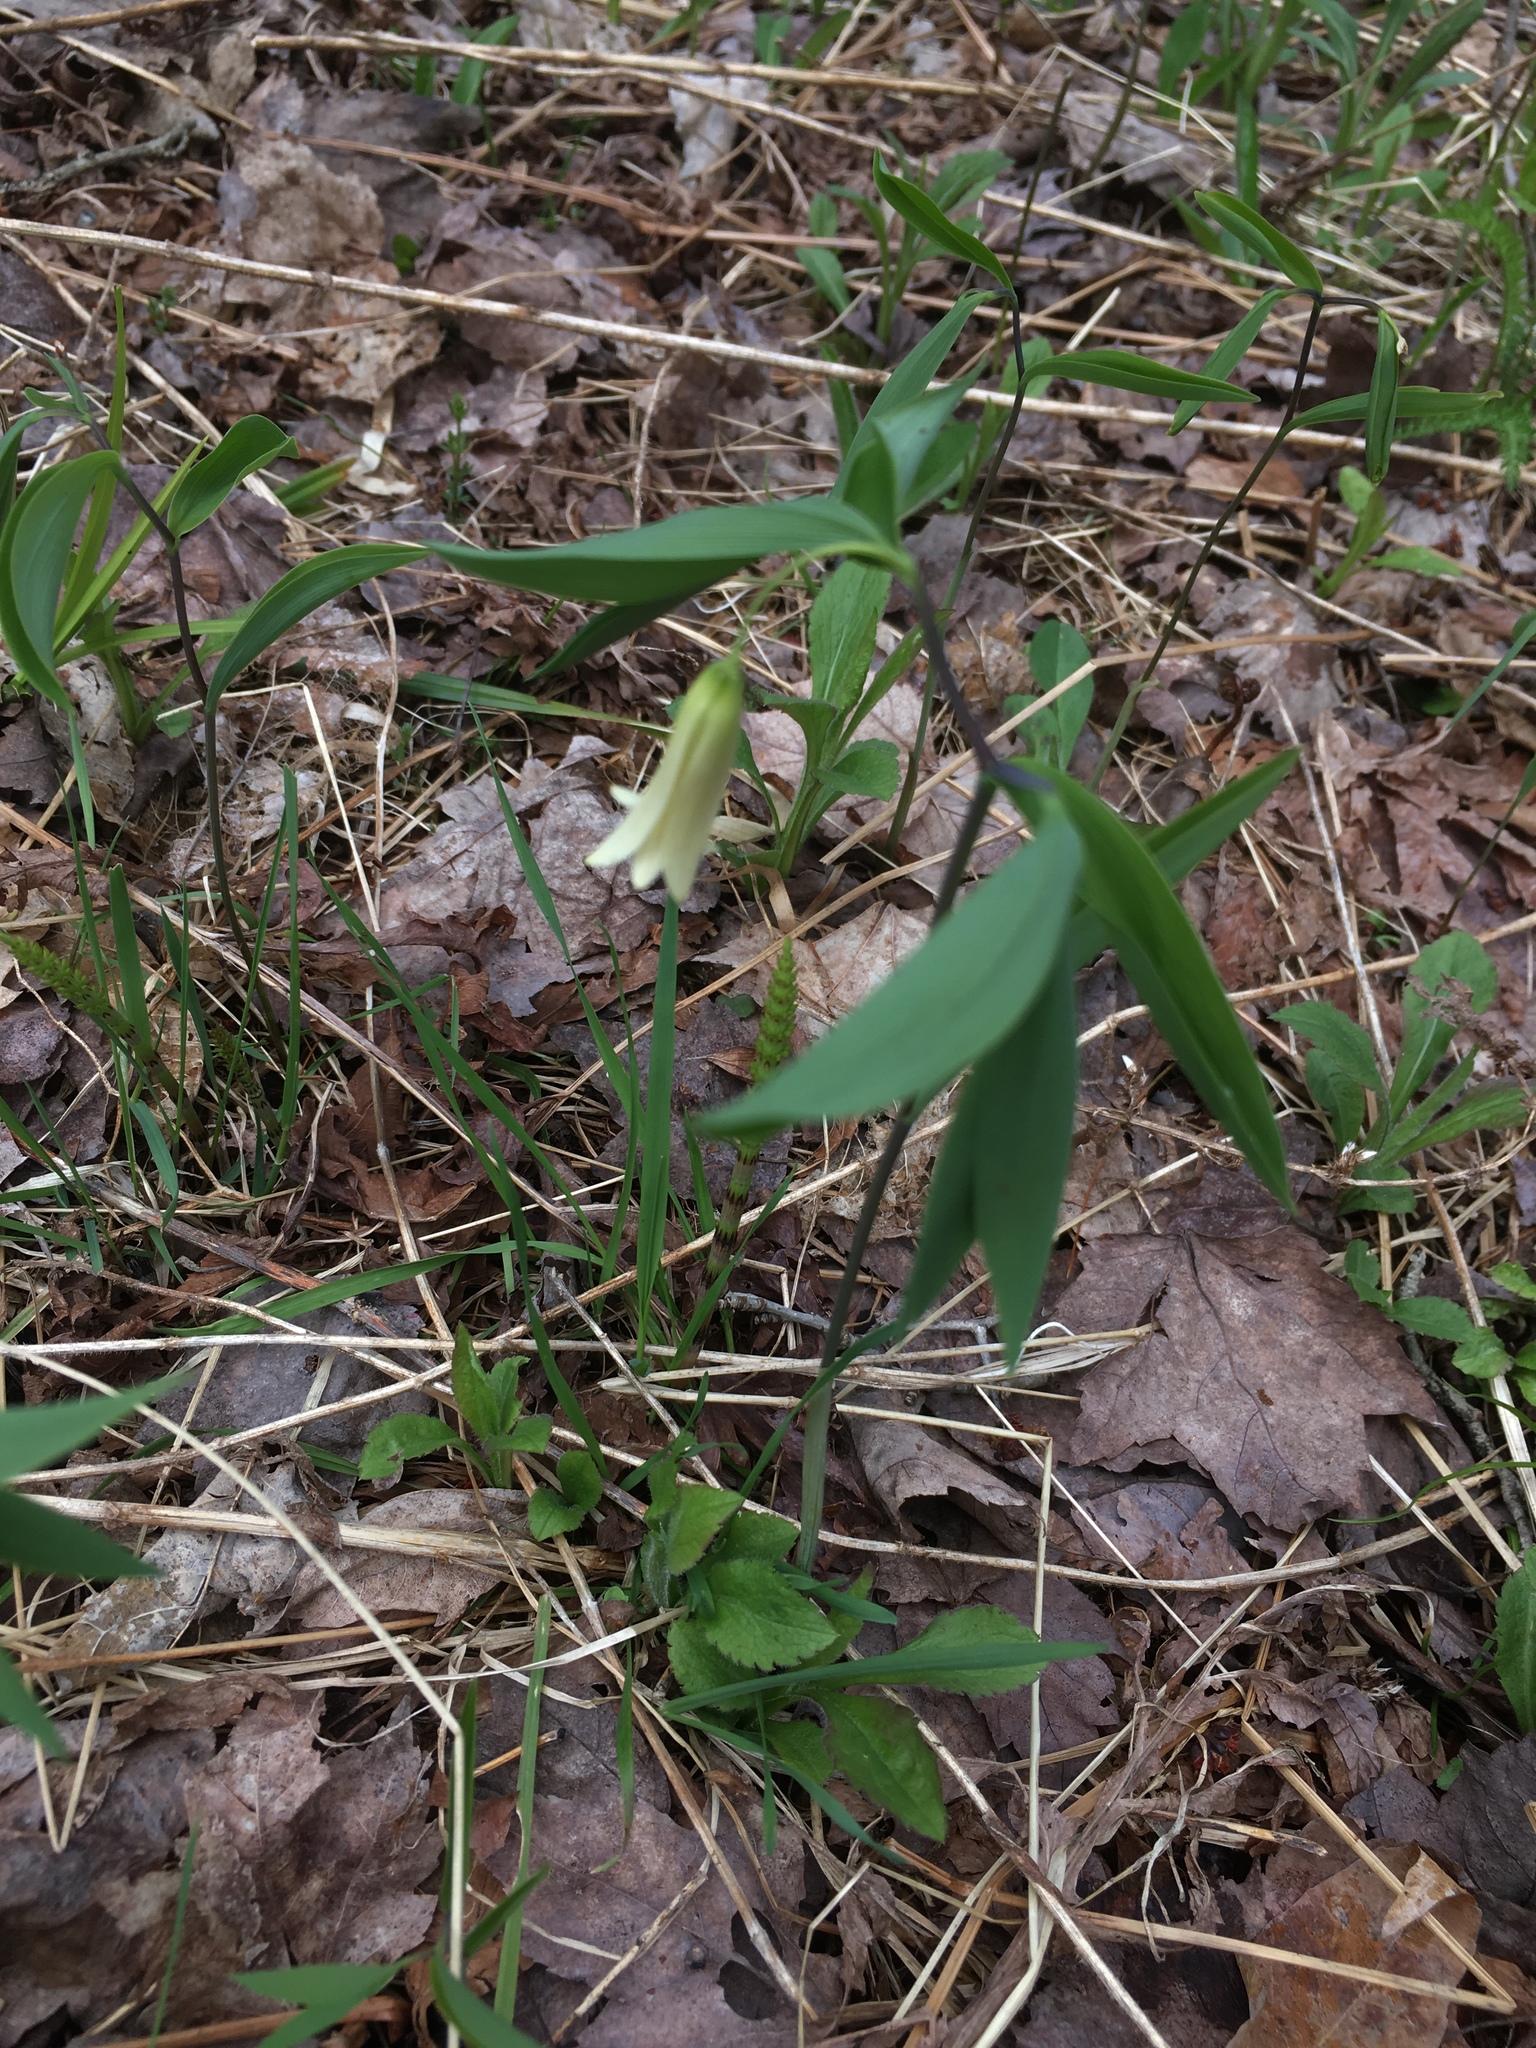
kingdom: Plantae
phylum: Tracheophyta
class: Liliopsida
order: Liliales
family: Colchicaceae
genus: Uvularia
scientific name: Uvularia sessilifolia
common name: Straw-lily
